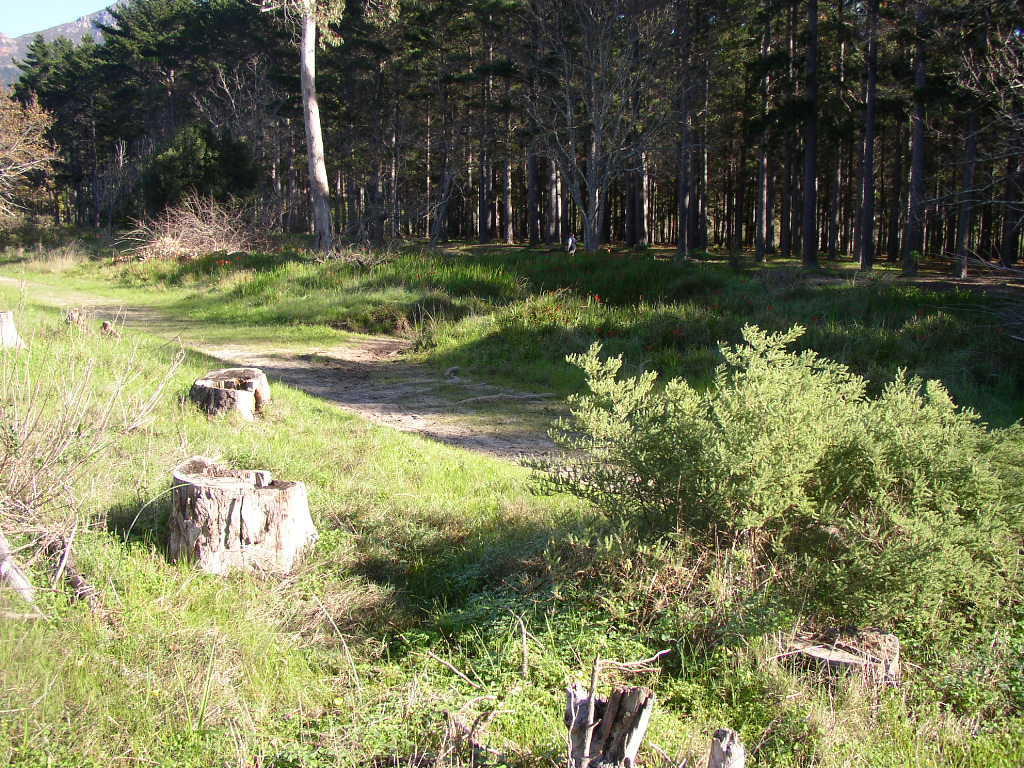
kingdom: Plantae
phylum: Tracheophyta
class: Liliopsida
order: Asparagales
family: Asparagaceae
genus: Asparagus
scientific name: Asparagus rubicundus
